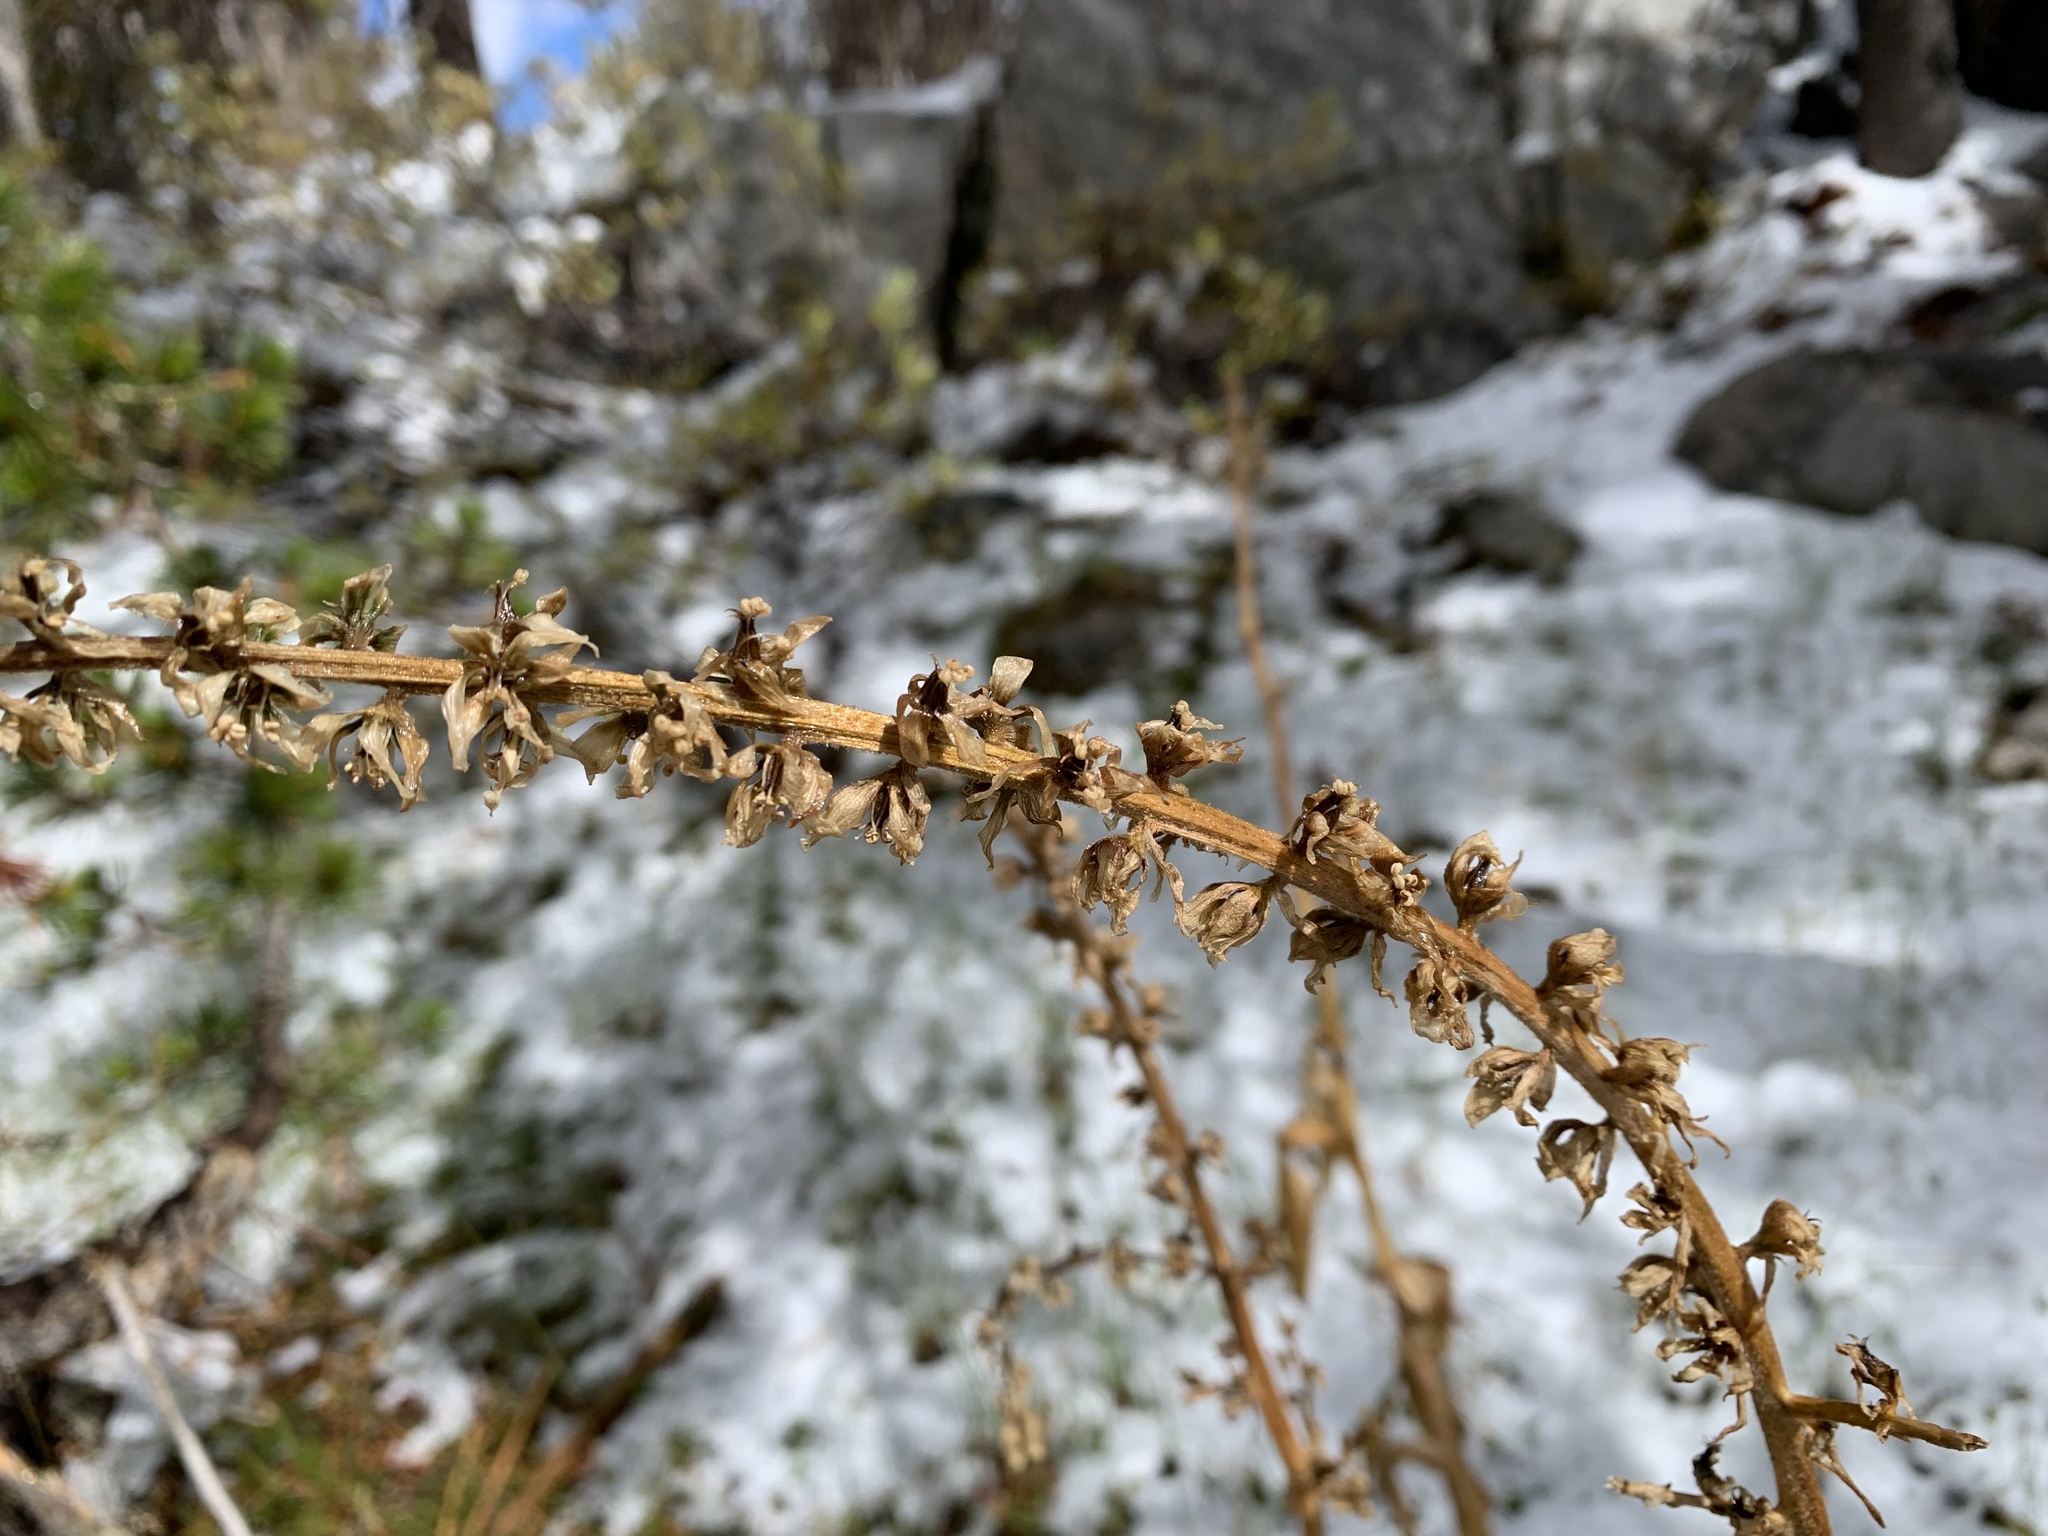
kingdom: Plantae
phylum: Tracheophyta
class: Liliopsida
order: Liliales
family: Melanthiaceae
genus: Veratrum
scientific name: Veratrum californicum
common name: California veratrum
